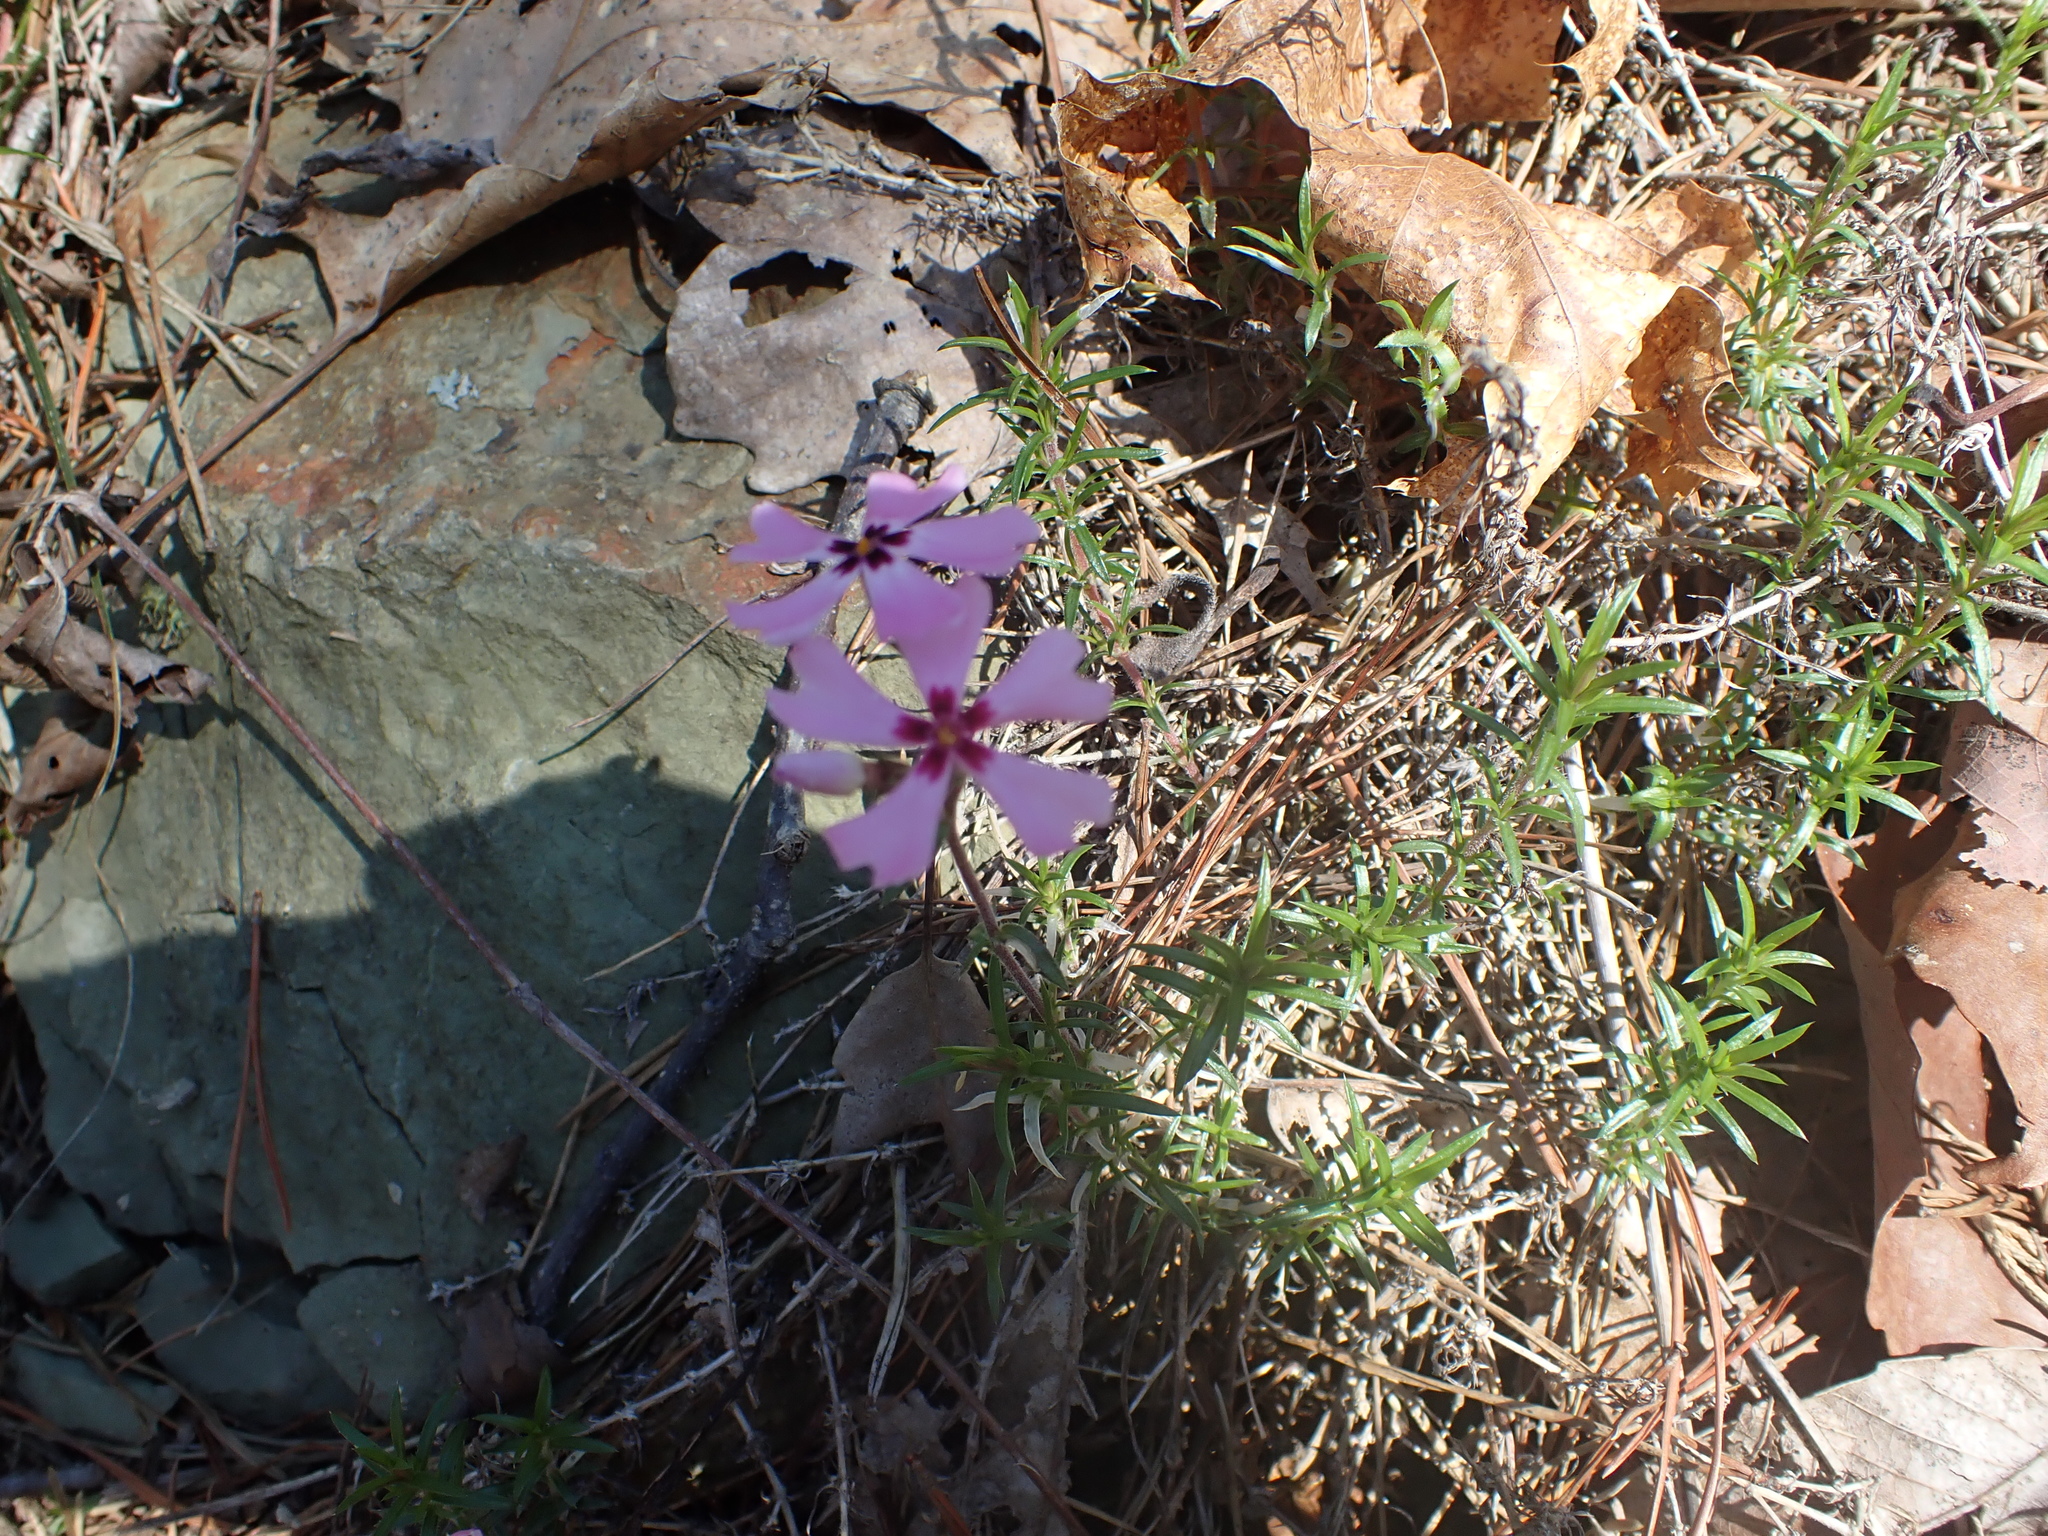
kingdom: Plantae
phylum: Tracheophyta
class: Magnoliopsida
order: Ericales
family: Polemoniaceae
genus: Phlox
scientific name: Phlox subulata
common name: Moss phlox
